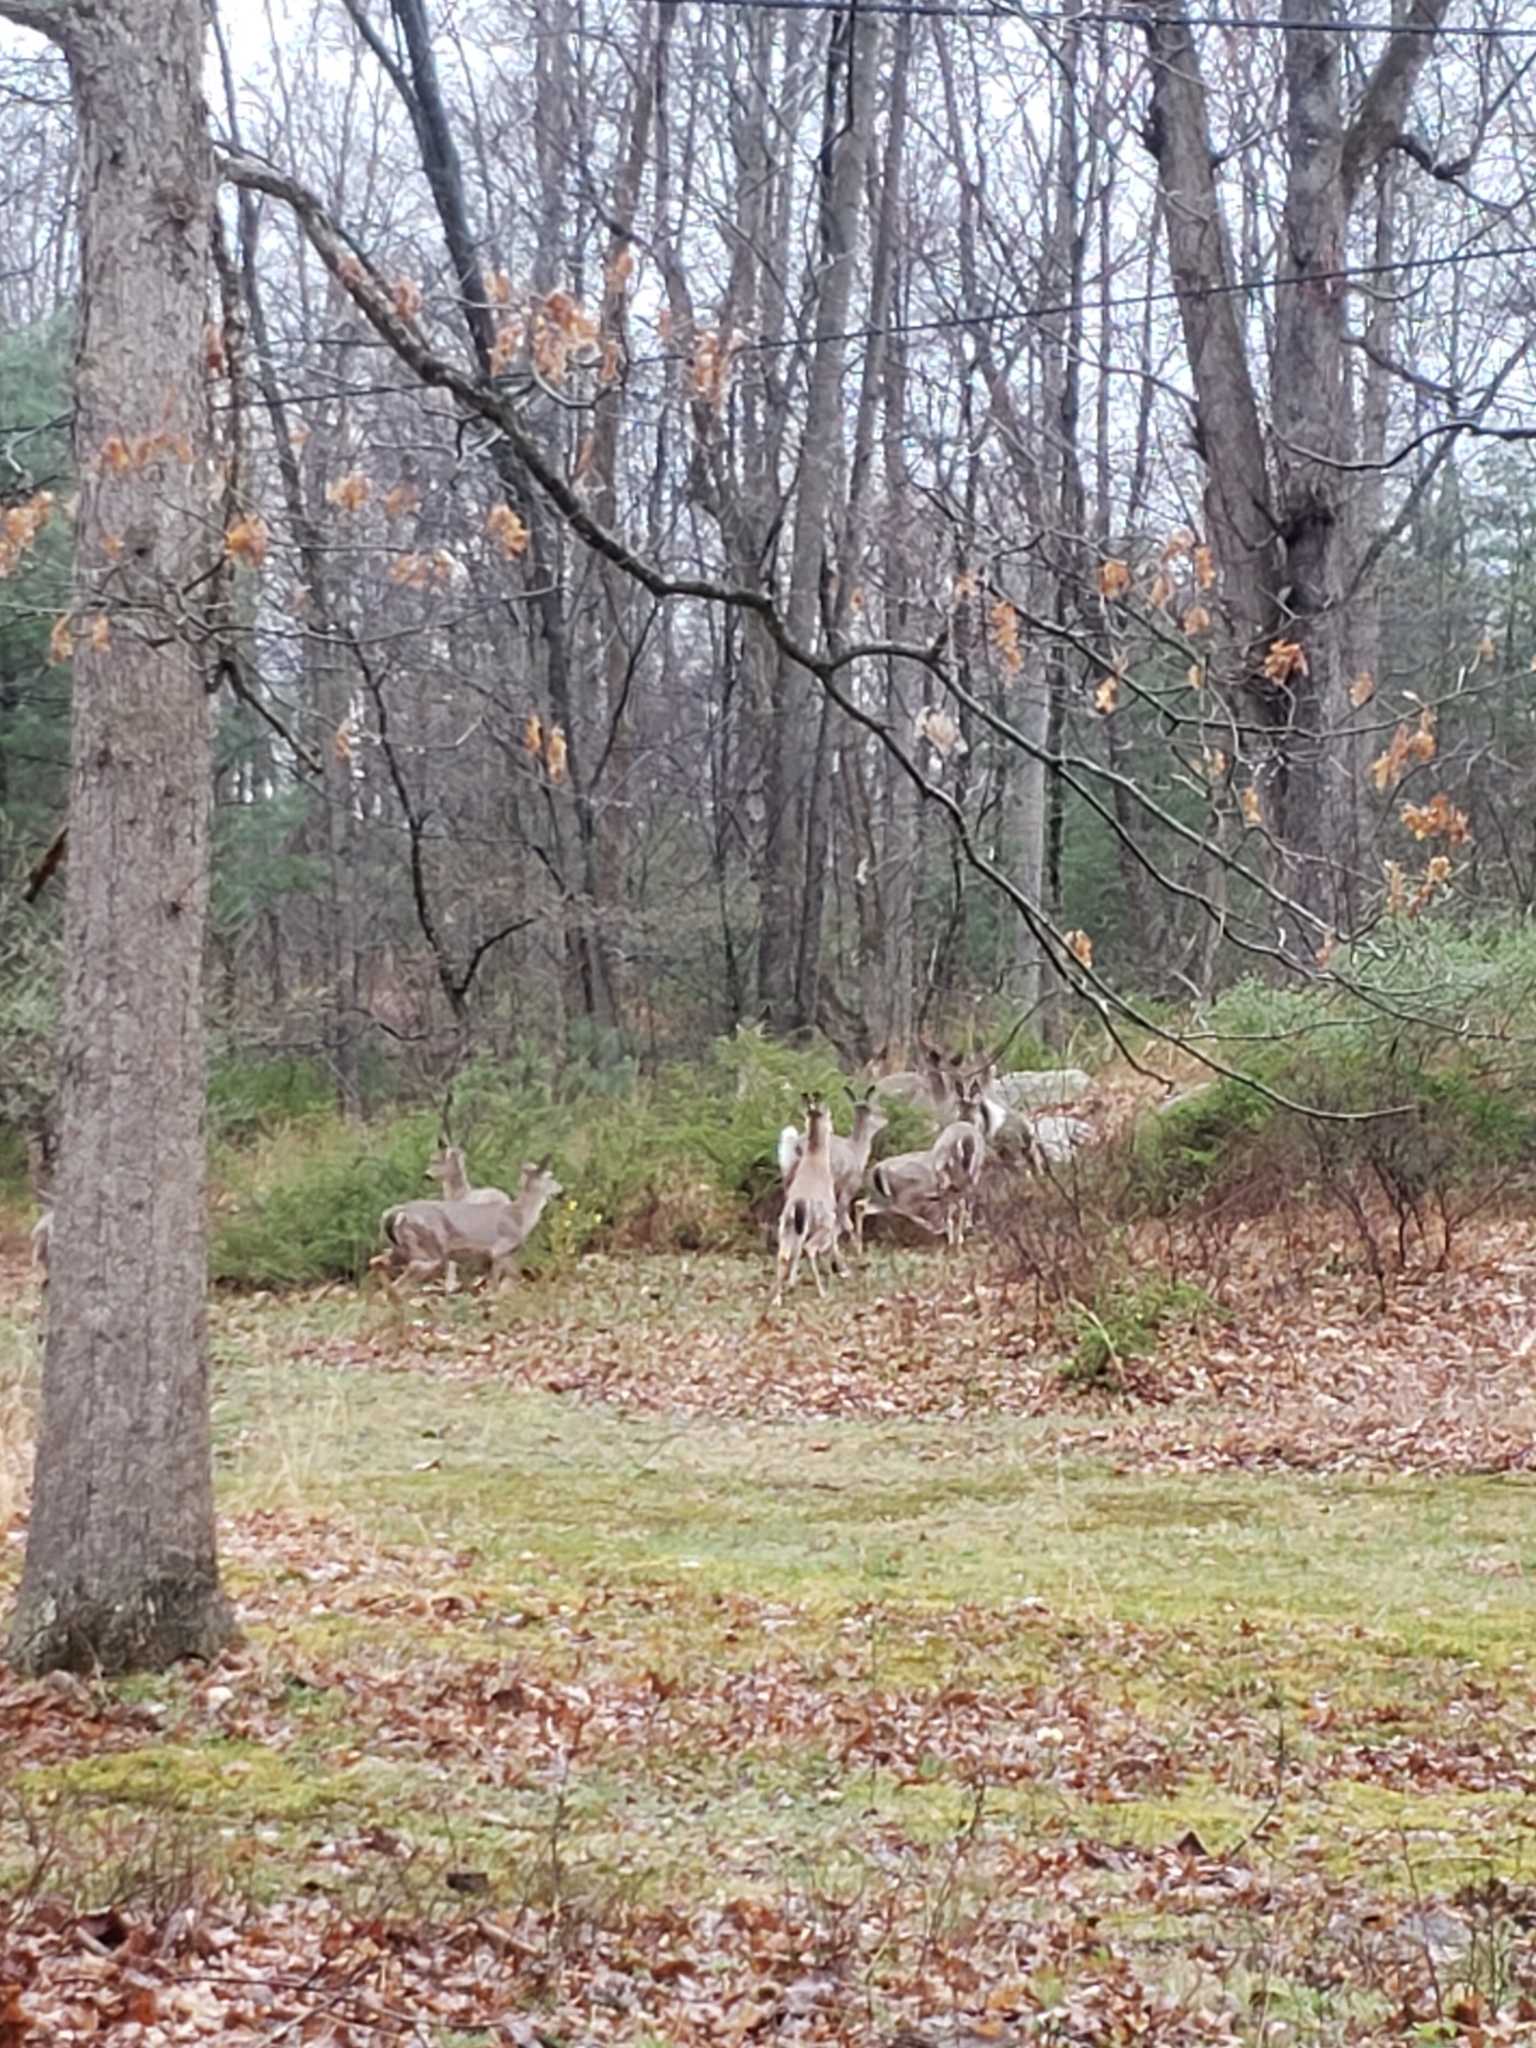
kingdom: Animalia
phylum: Chordata
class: Mammalia
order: Artiodactyla
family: Cervidae
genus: Odocoileus
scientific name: Odocoileus virginianus
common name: White-tailed deer
